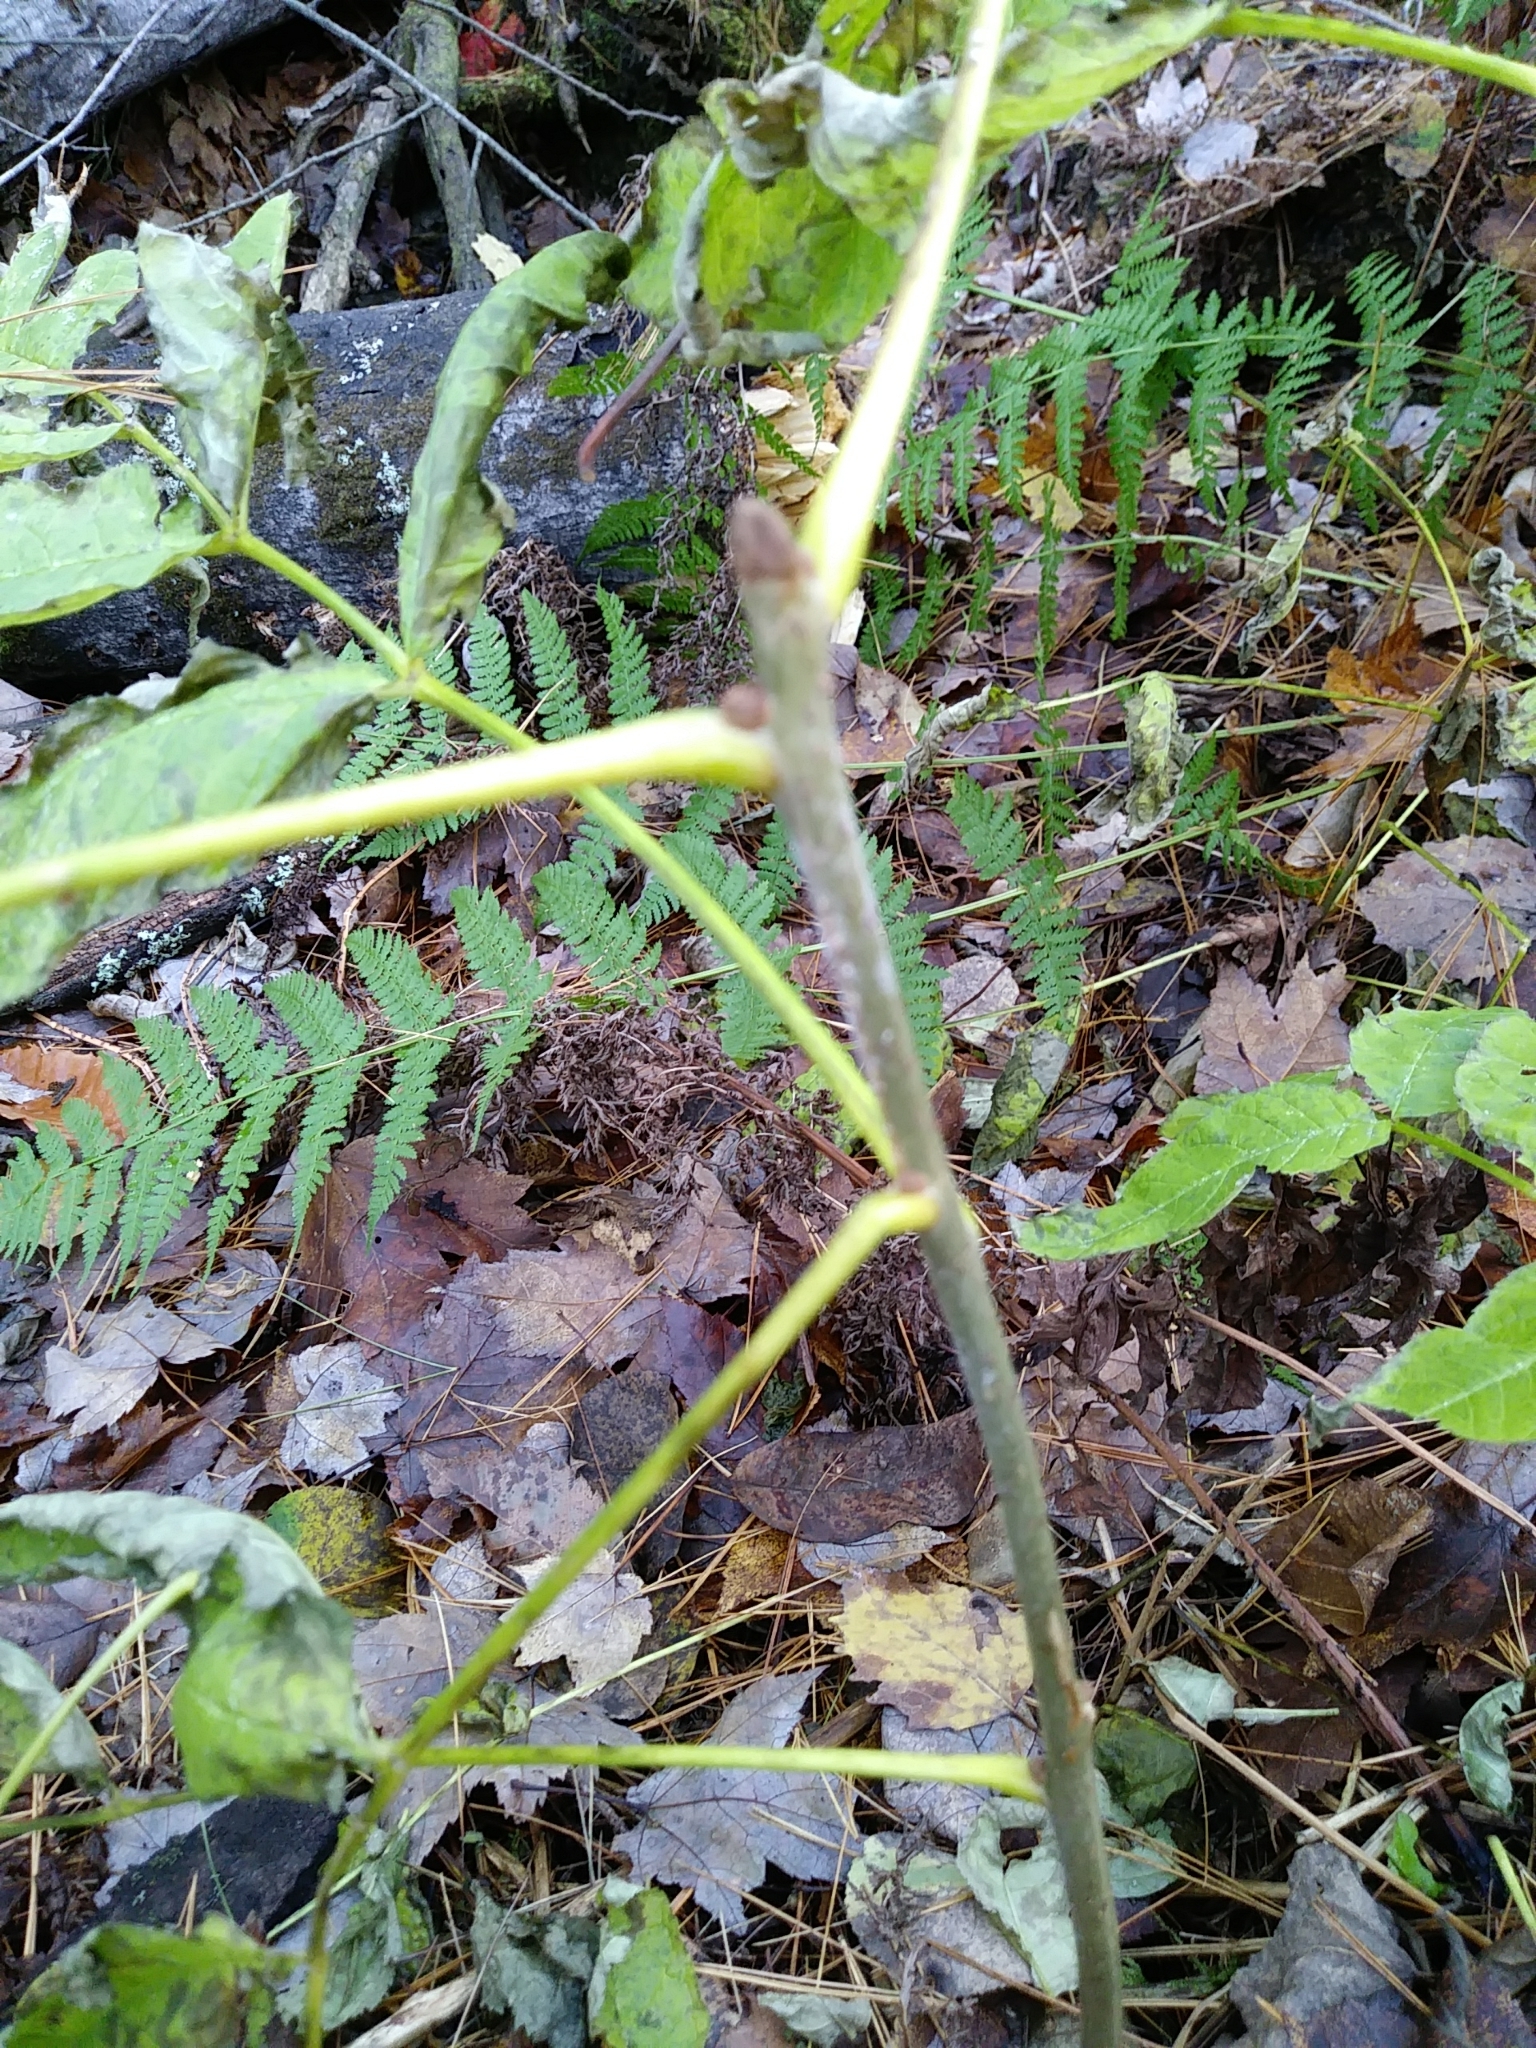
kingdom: Plantae
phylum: Tracheophyta
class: Magnoliopsida
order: Lamiales
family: Oleaceae
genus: Fraxinus
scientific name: Fraxinus nigra
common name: Black ash
